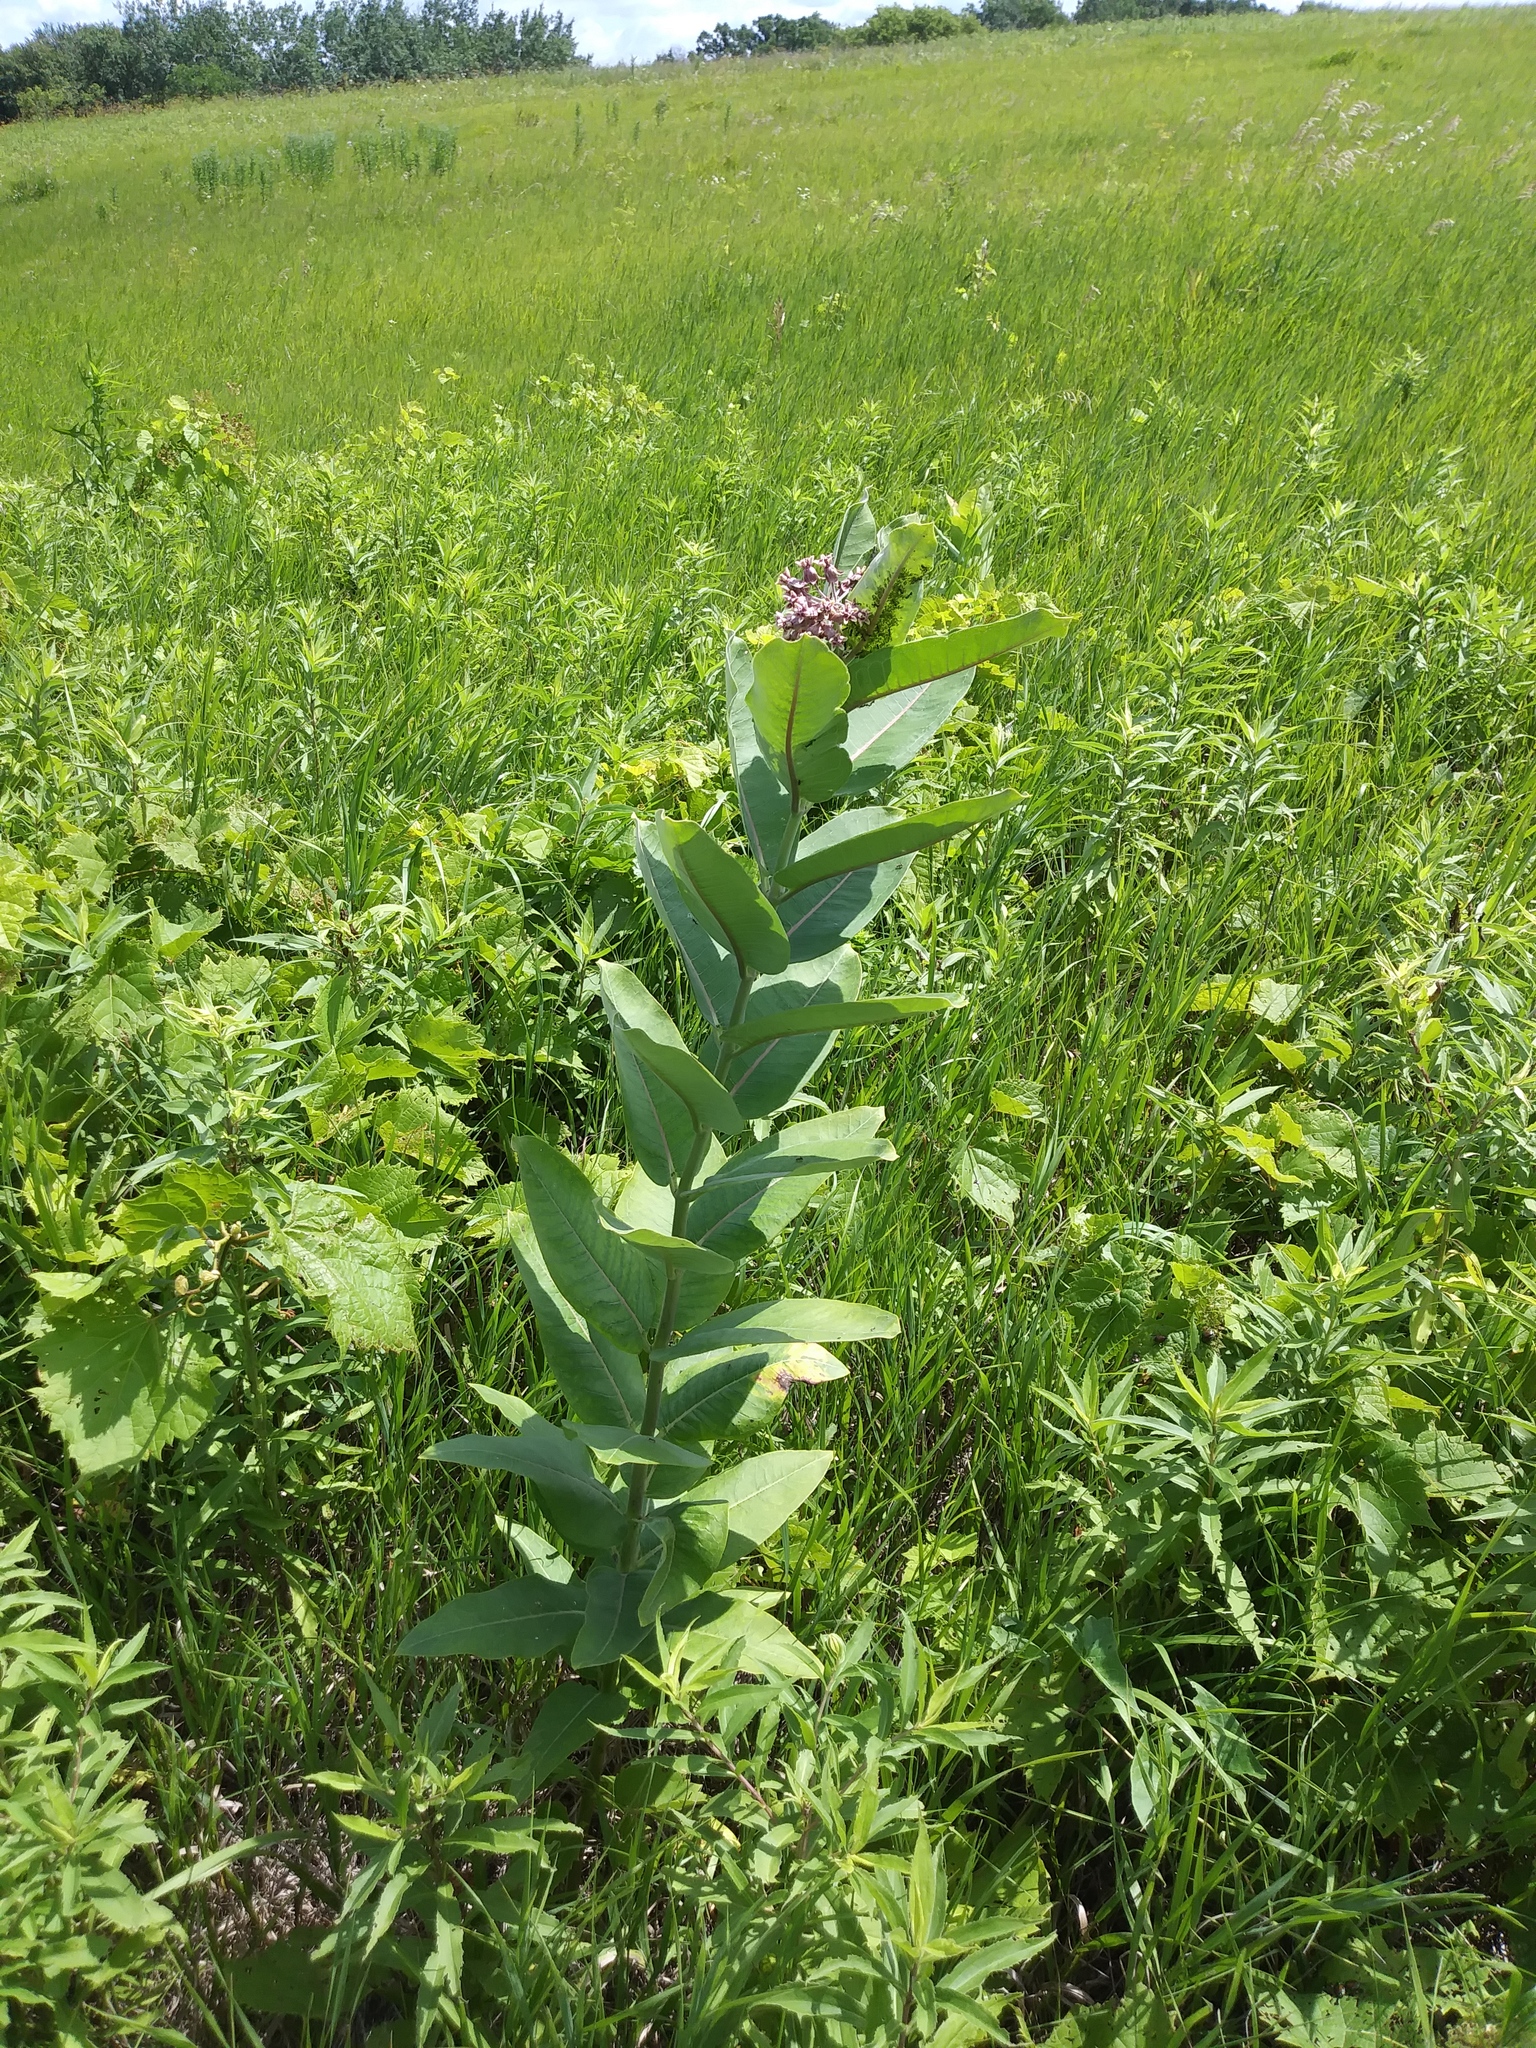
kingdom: Plantae
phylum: Tracheophyta
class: Magnoliopsida
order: Gentianales
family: Apocynaceae
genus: Asclepias
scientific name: Asclepias syriaca
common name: Common milkweed
